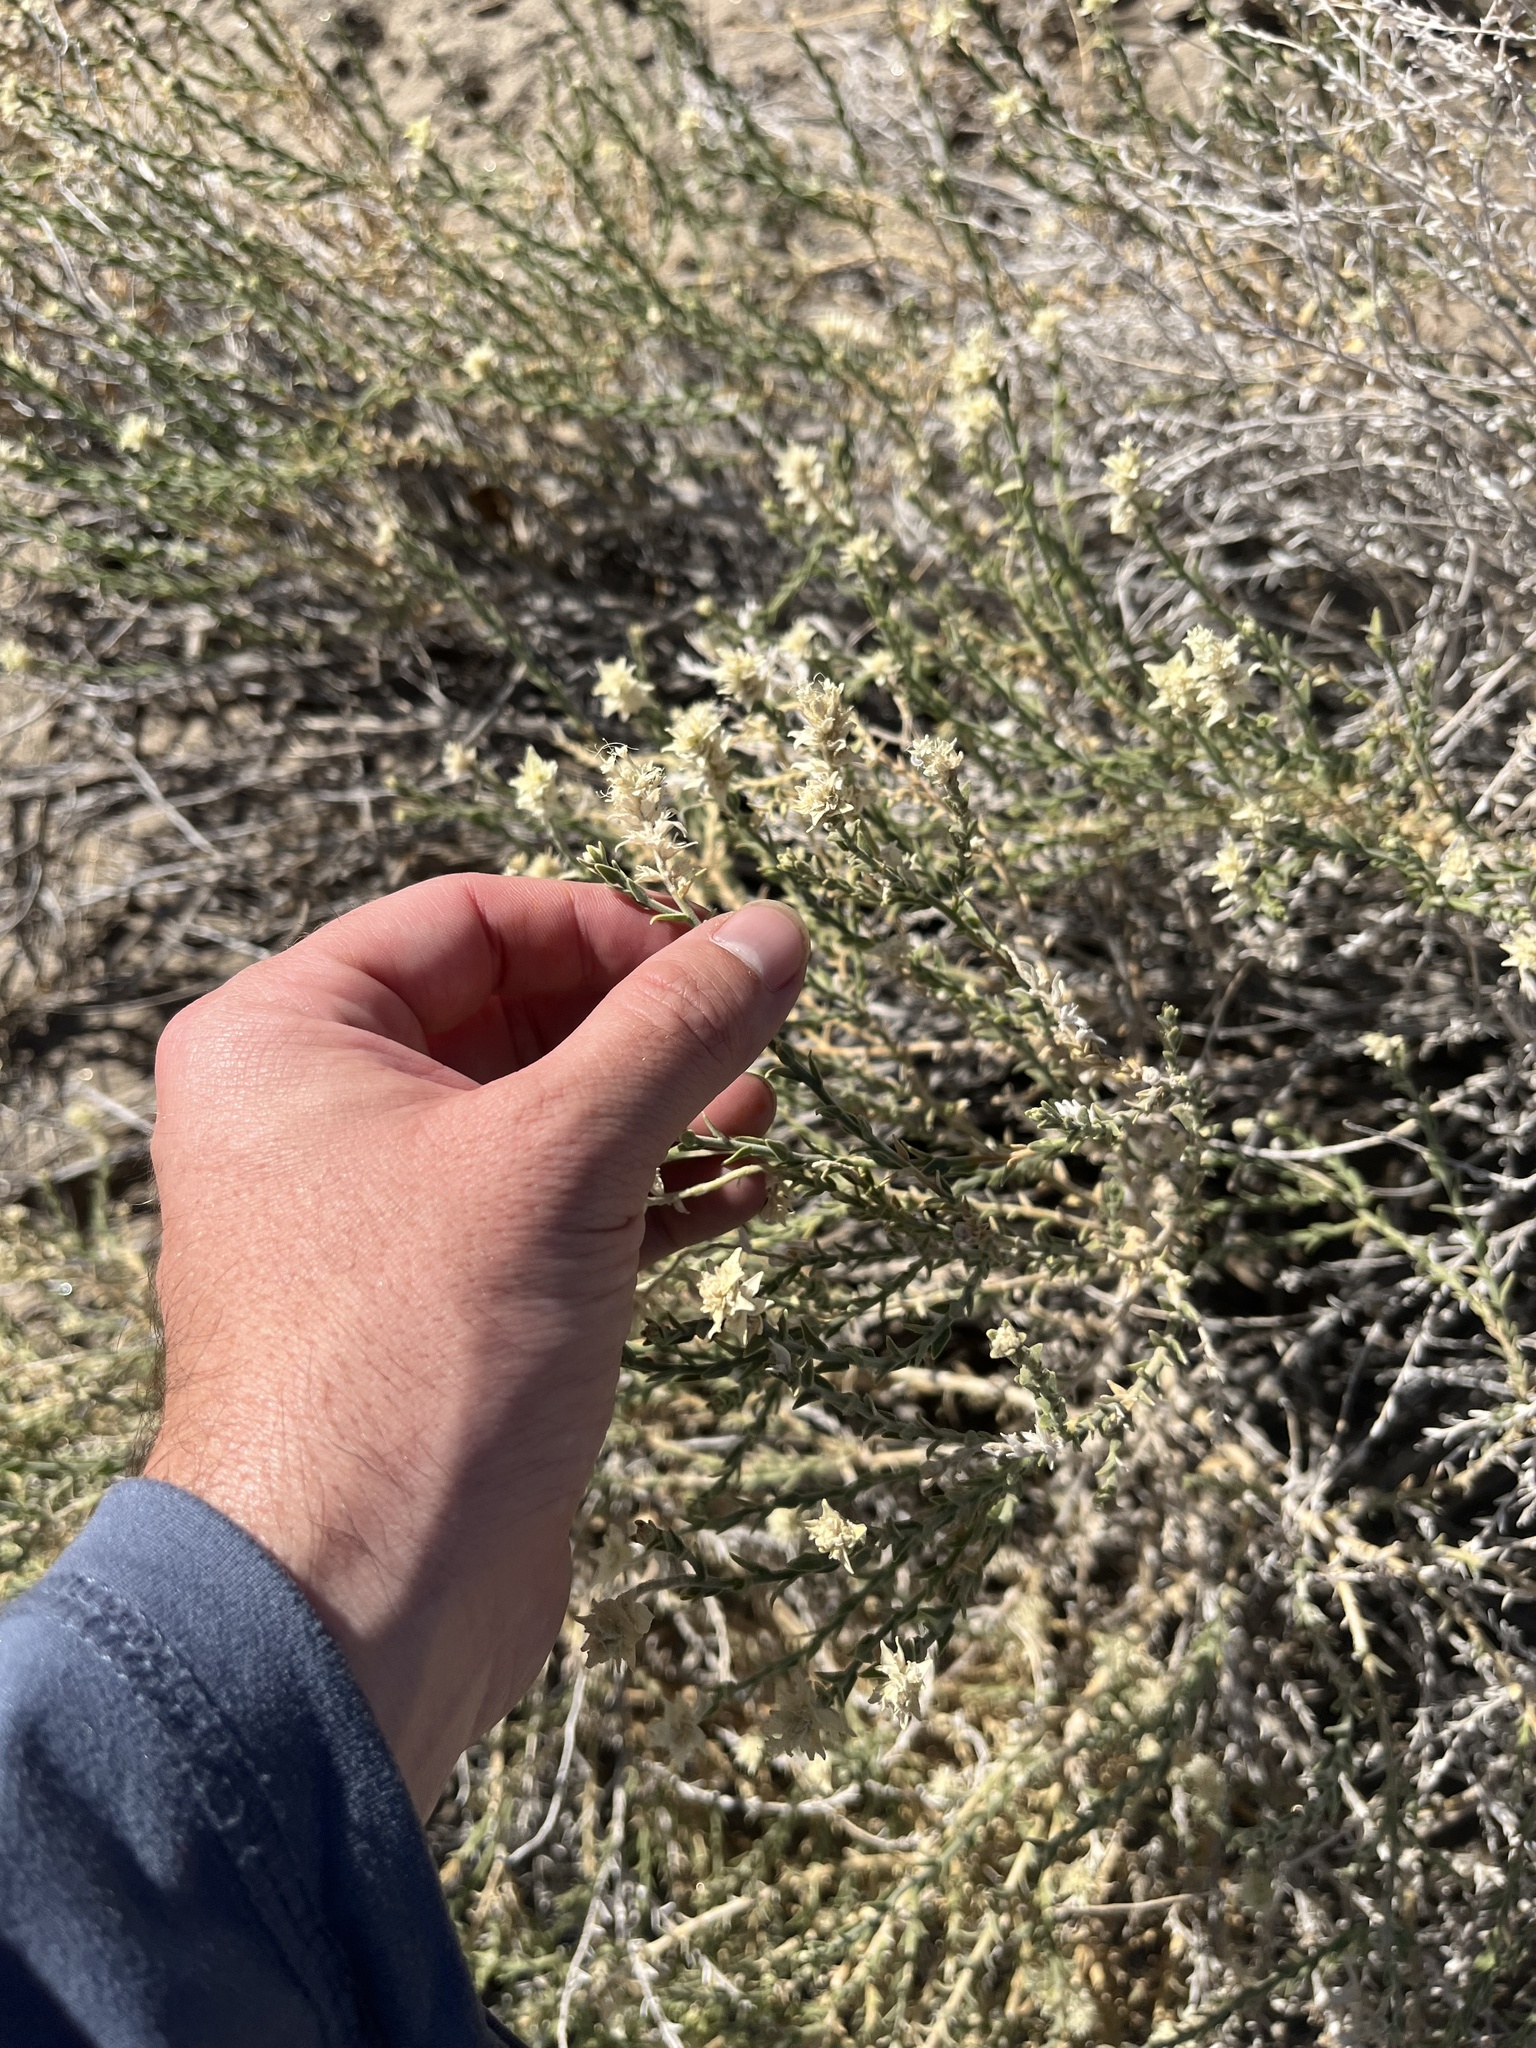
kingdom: Plantae
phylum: Tracheophyta
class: Magnoliopsida
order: Cornales
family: Loasaceae
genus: Petalonyx
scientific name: Petalonyx thurberi
